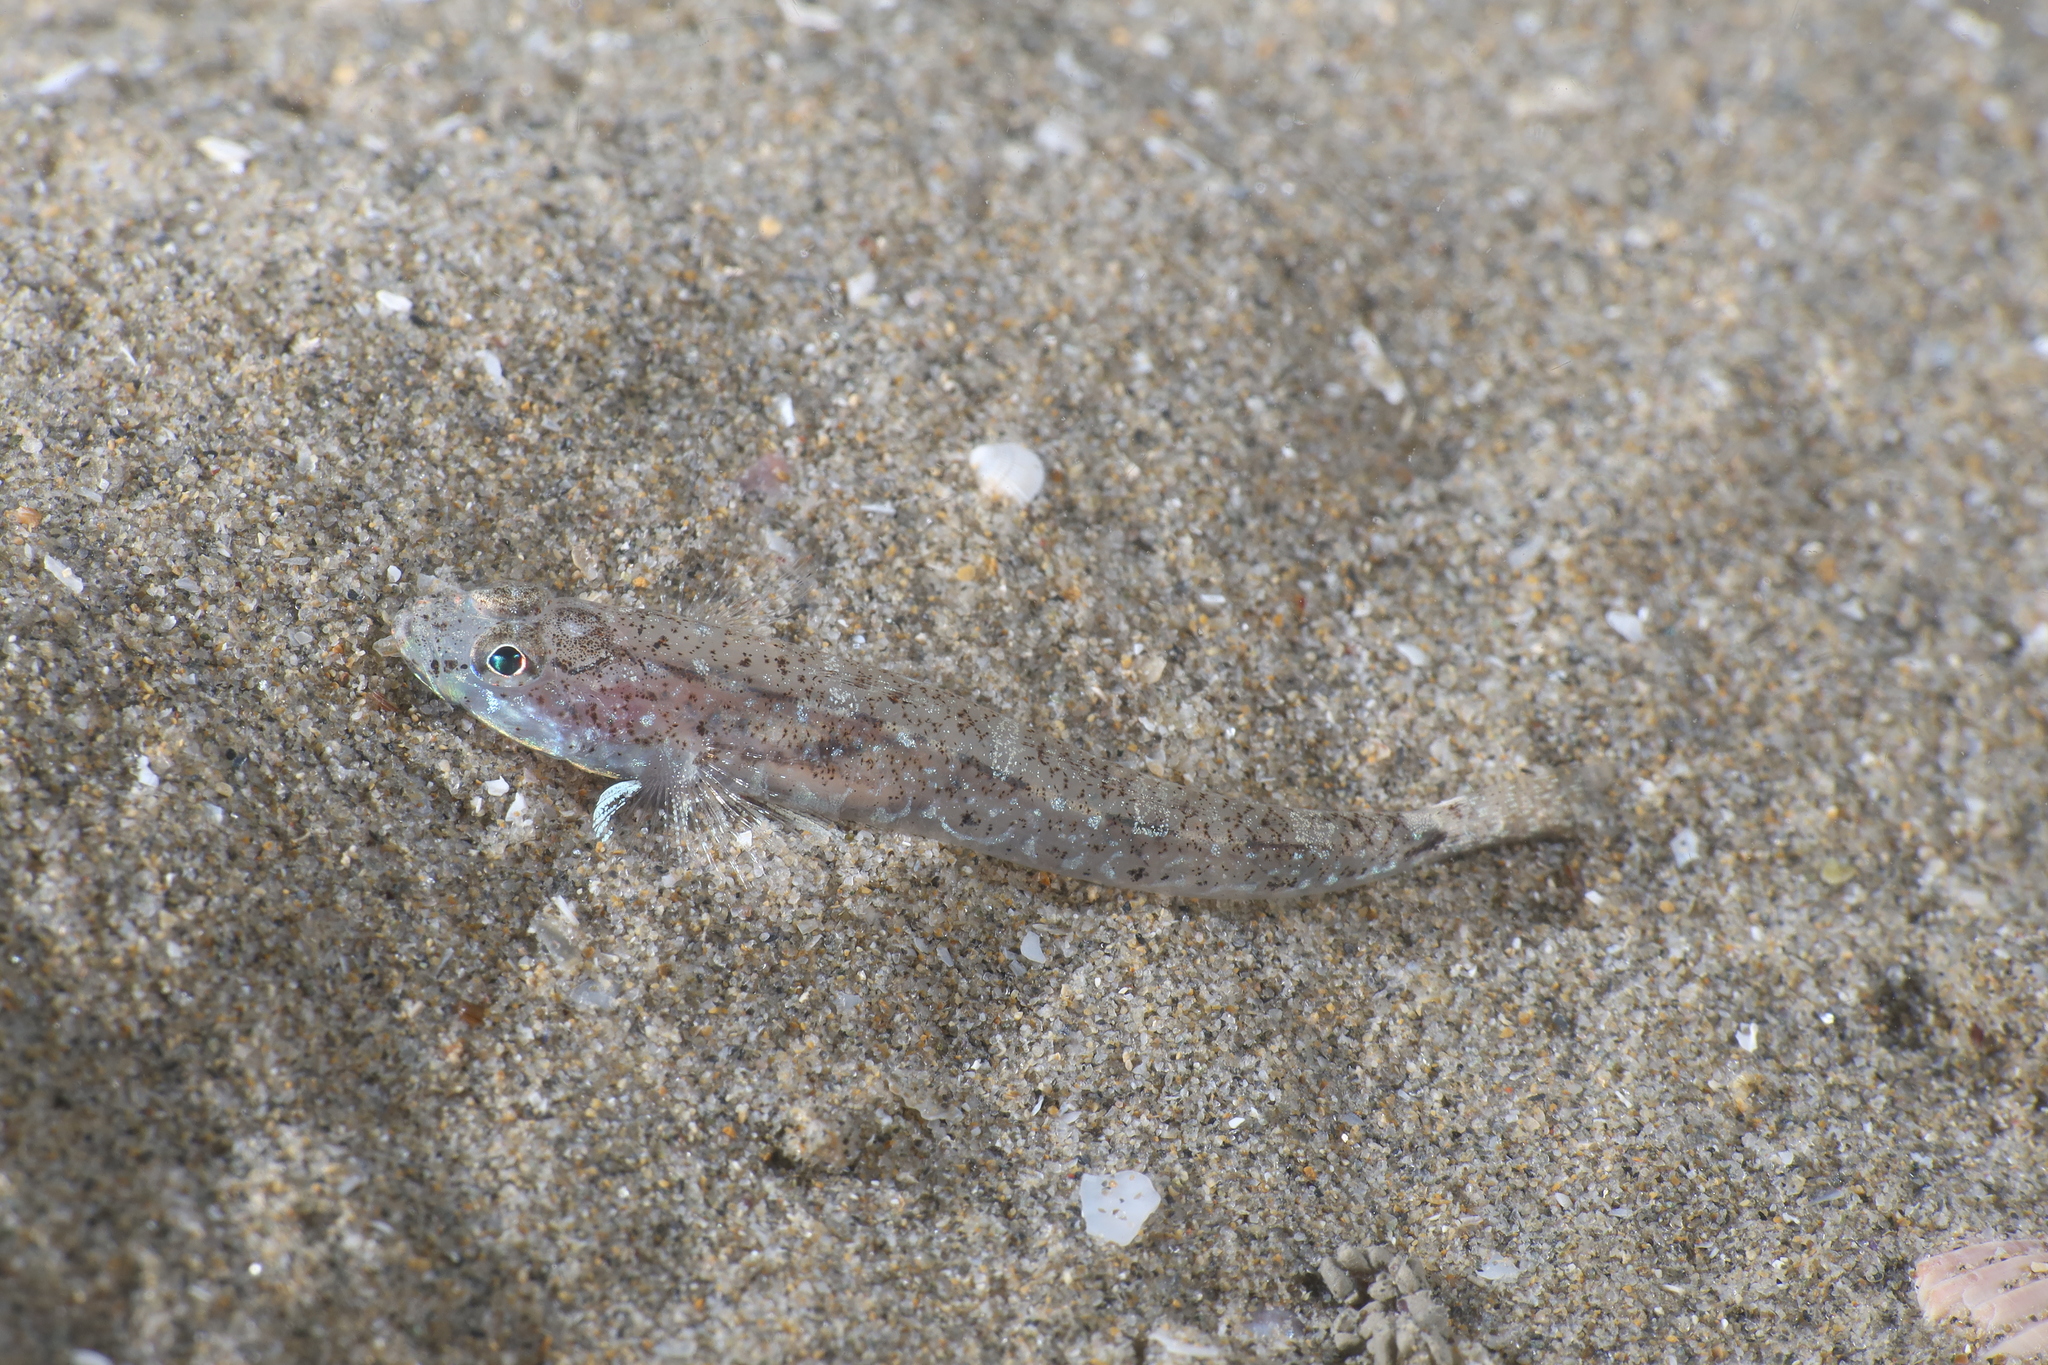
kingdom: Animalia
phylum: Chordata
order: Perciformes
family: Gobiidae
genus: Pomatoschistus
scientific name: Pomatoschistus marmoratus
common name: Marbled goby
